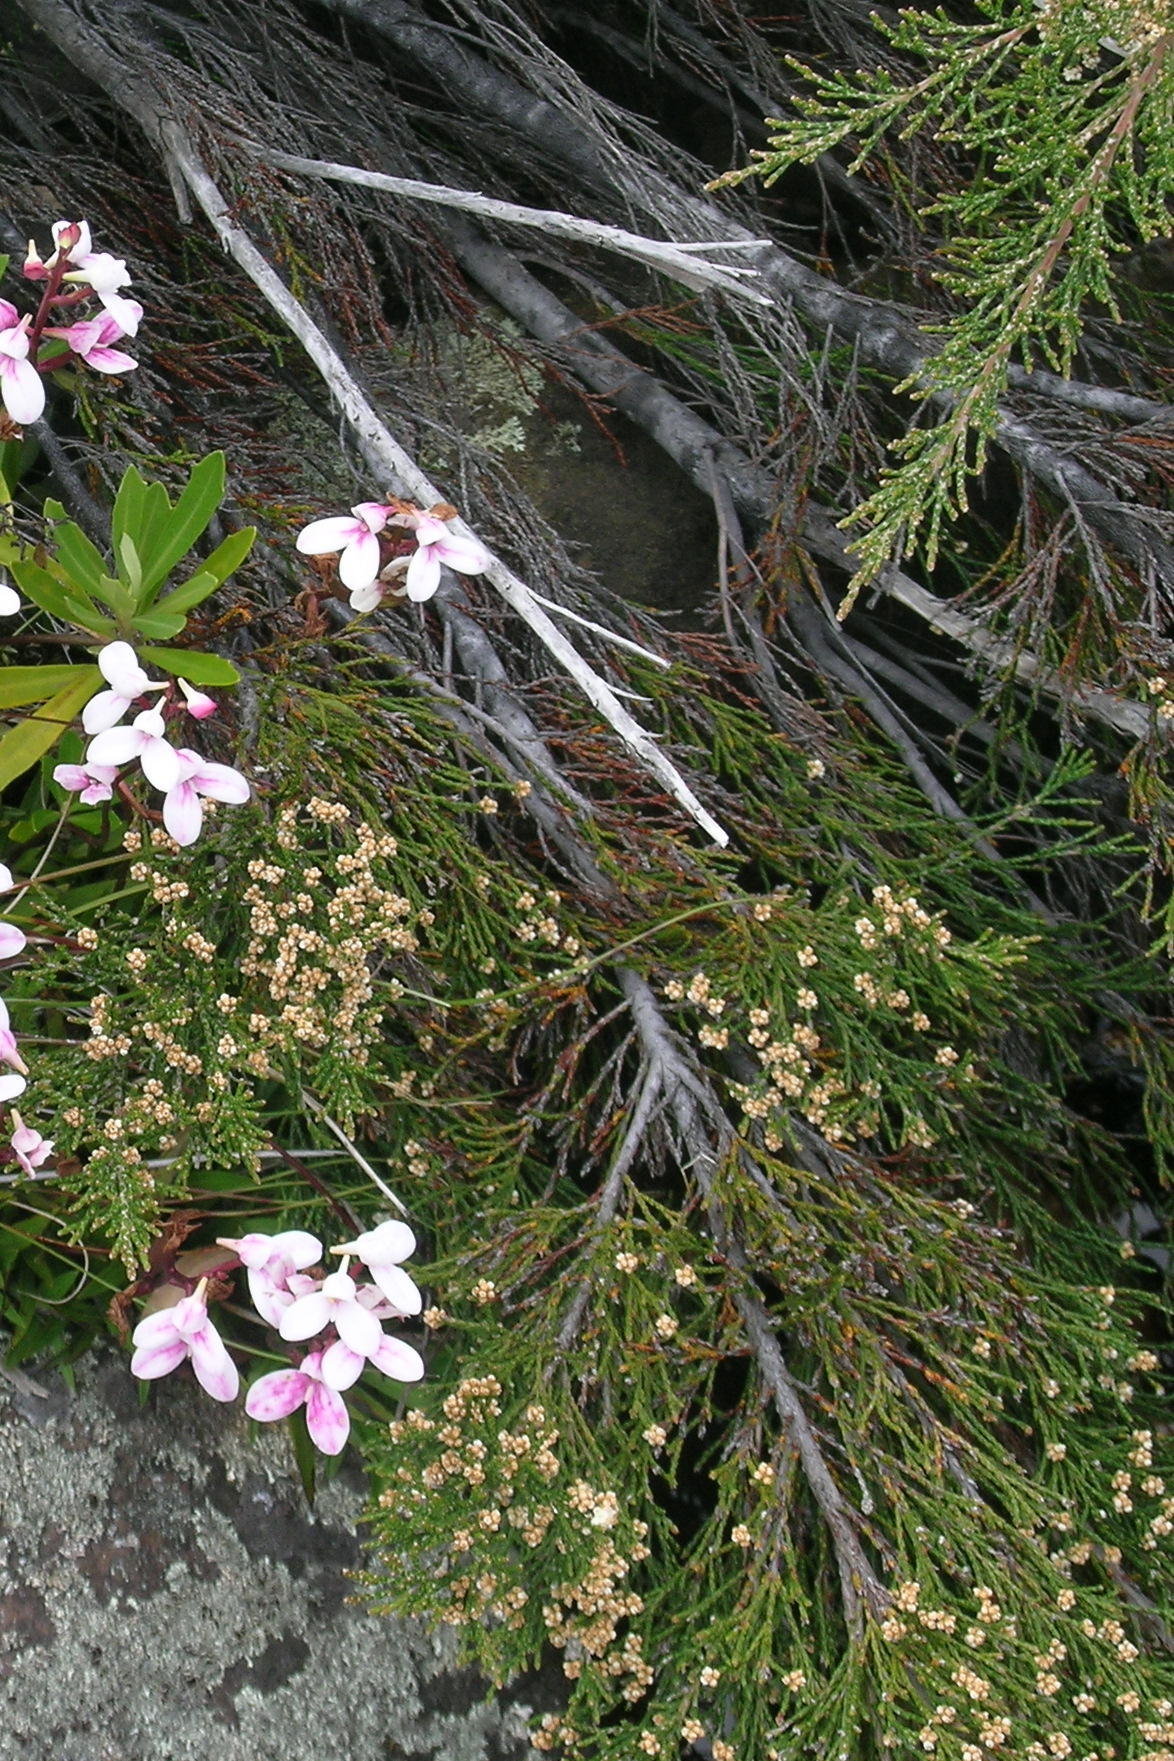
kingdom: Plantae
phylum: Tracheophyta
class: Magnoliopsida
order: Bruniales
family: Bruniaceae
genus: Brunia
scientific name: Brunia schlechteri
